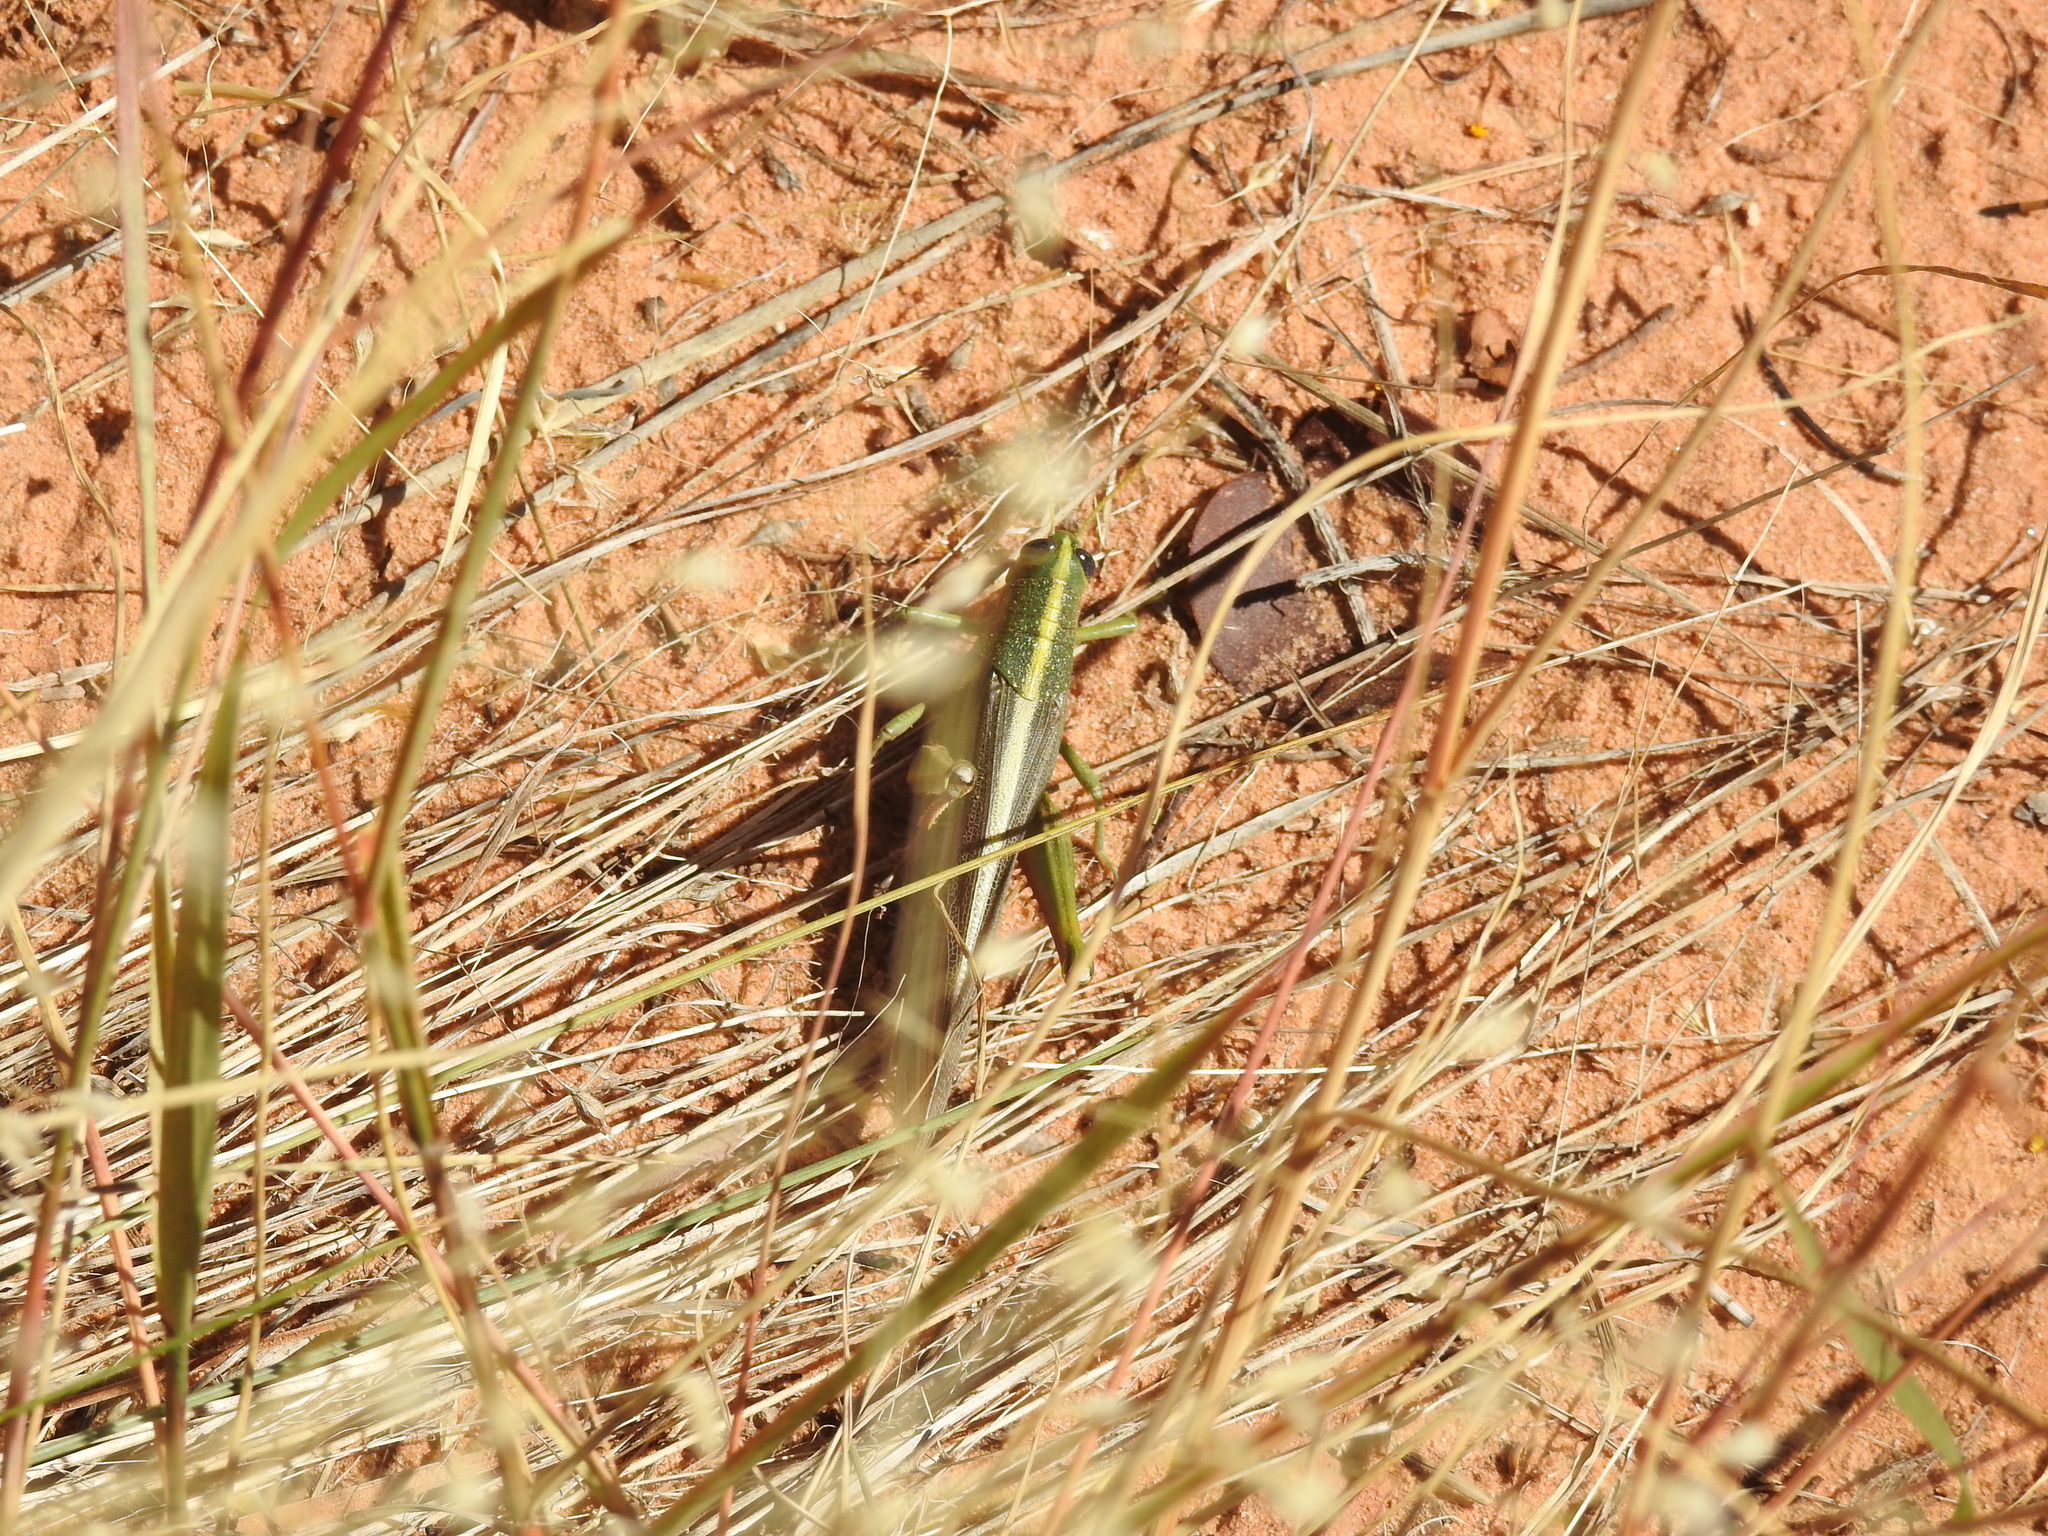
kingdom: Animalia
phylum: Arthropoda
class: Insecta
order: Orthoptera
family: Acrididae
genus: Schistocerca
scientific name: Schistocerca lineata
